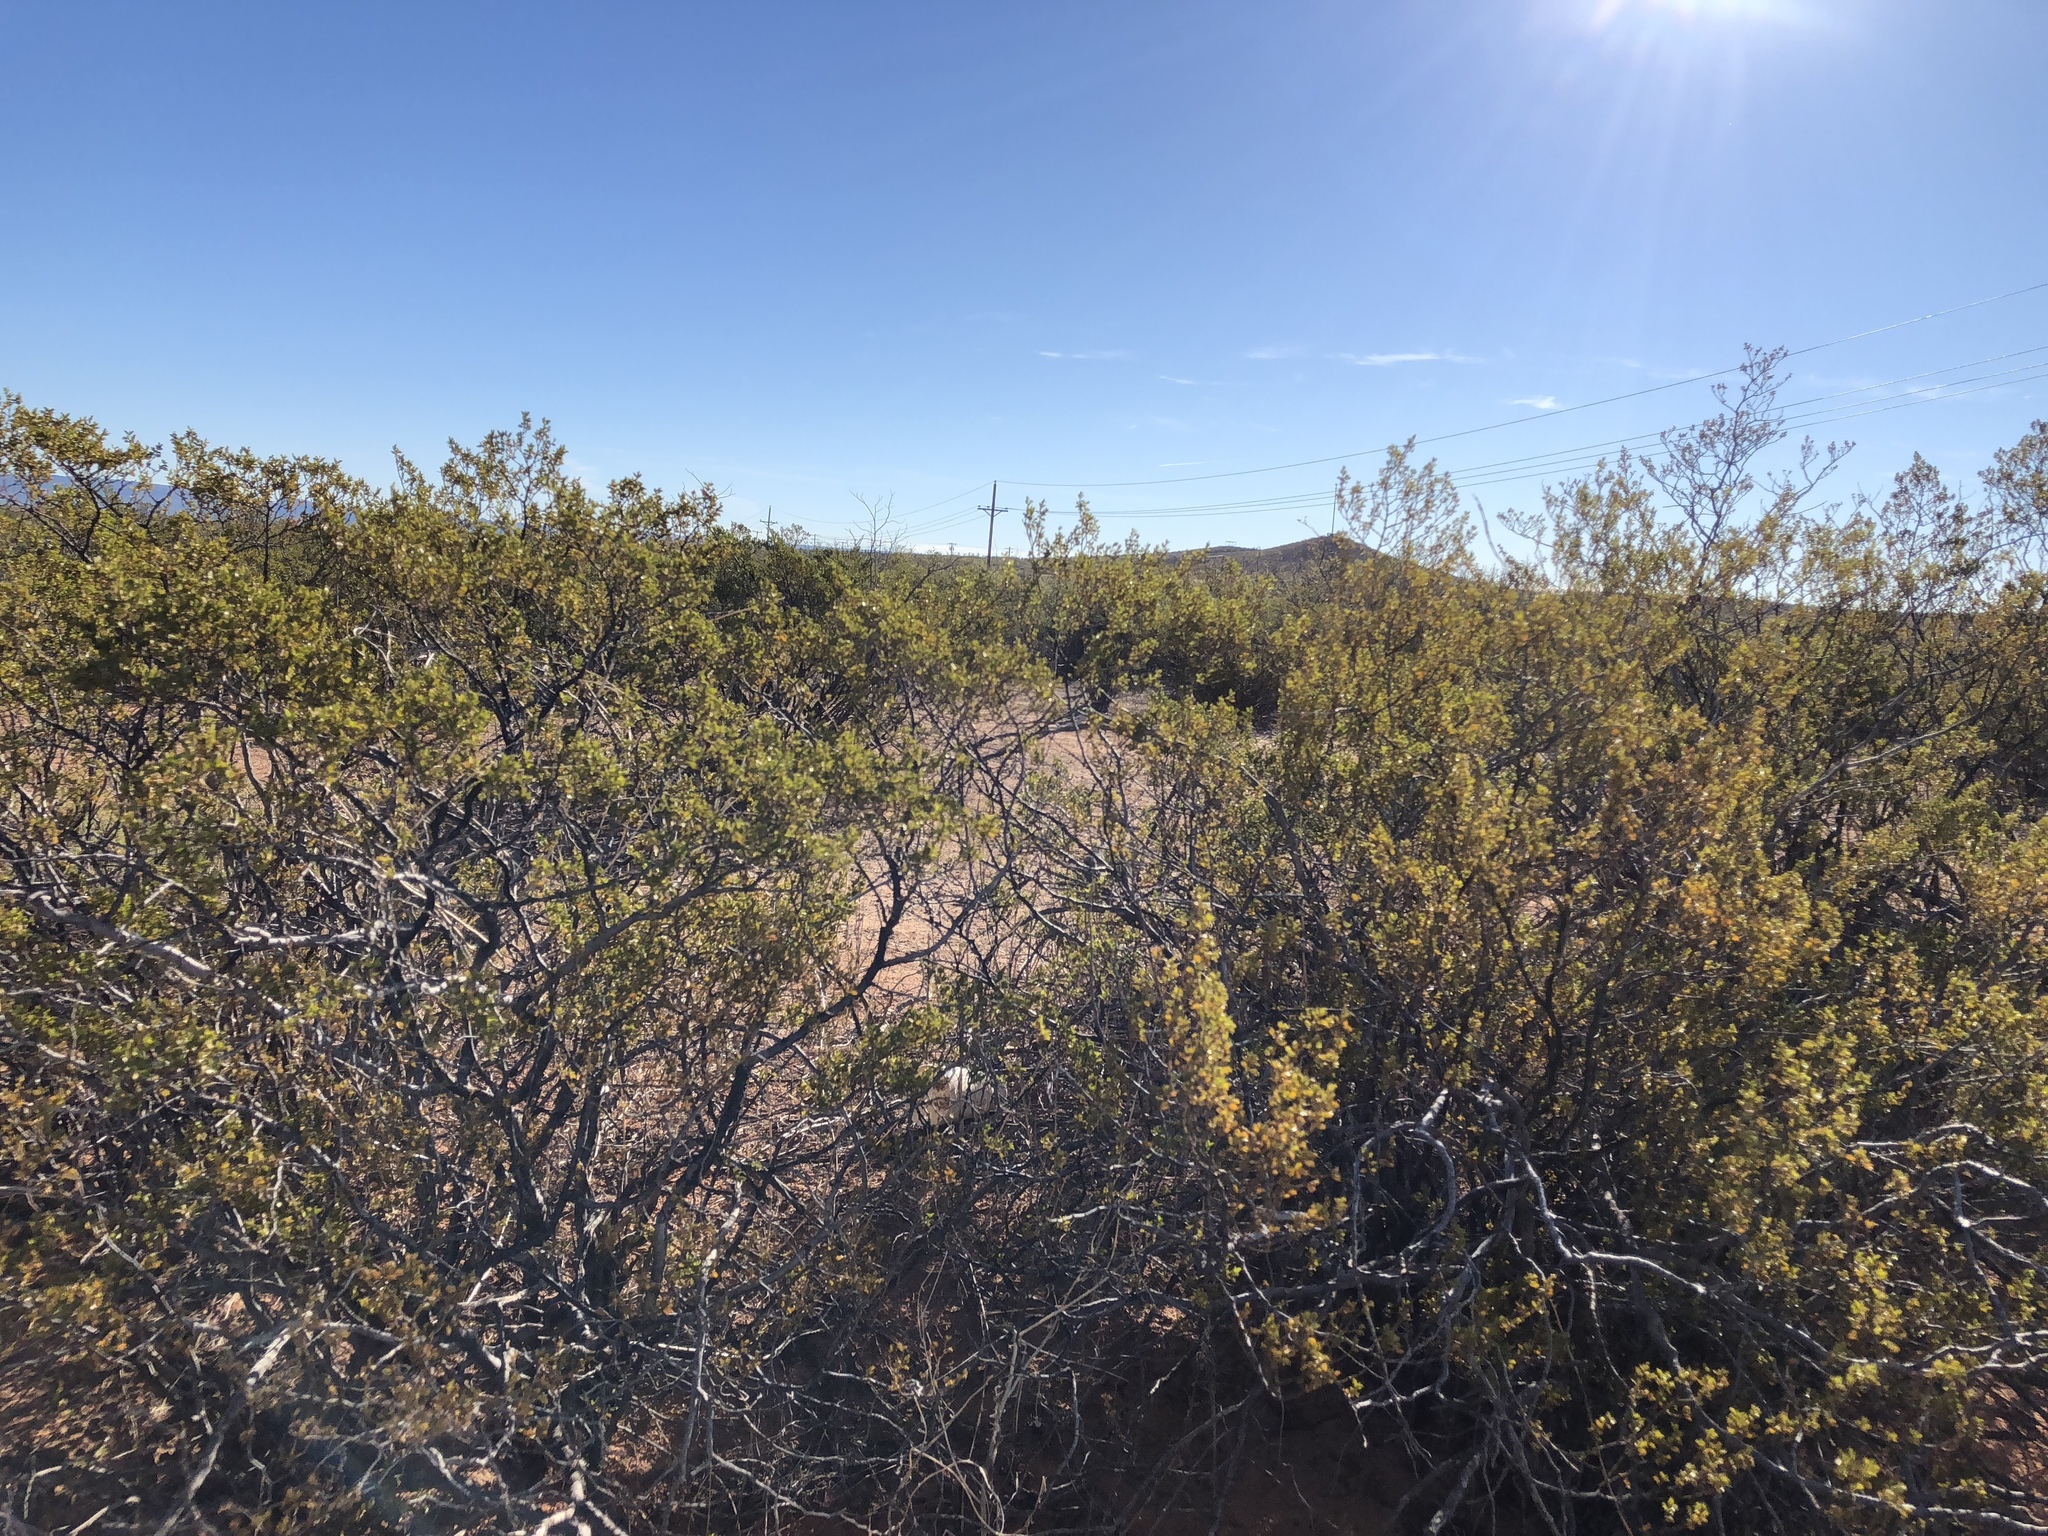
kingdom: Plantae
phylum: Tracheophyta
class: Magnoliopsida
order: Zygophyllales
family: Zygophyllaceae
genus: Larrea
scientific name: Larrea tridentata
